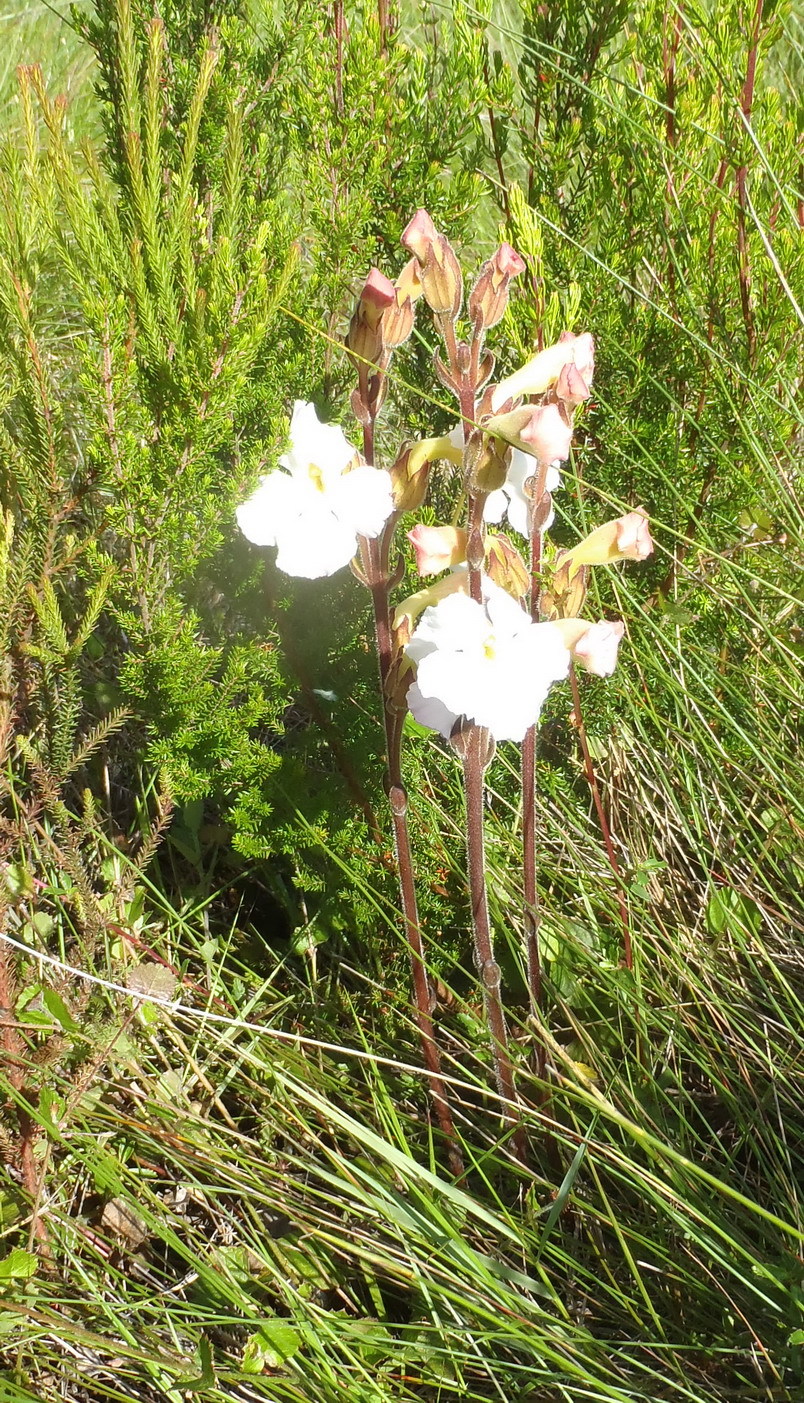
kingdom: Plantae
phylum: Tracheophyta
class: Magnoliopsida
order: Lamiales
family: Orobanchaceae
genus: Harveya
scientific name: Harveya speciosa
